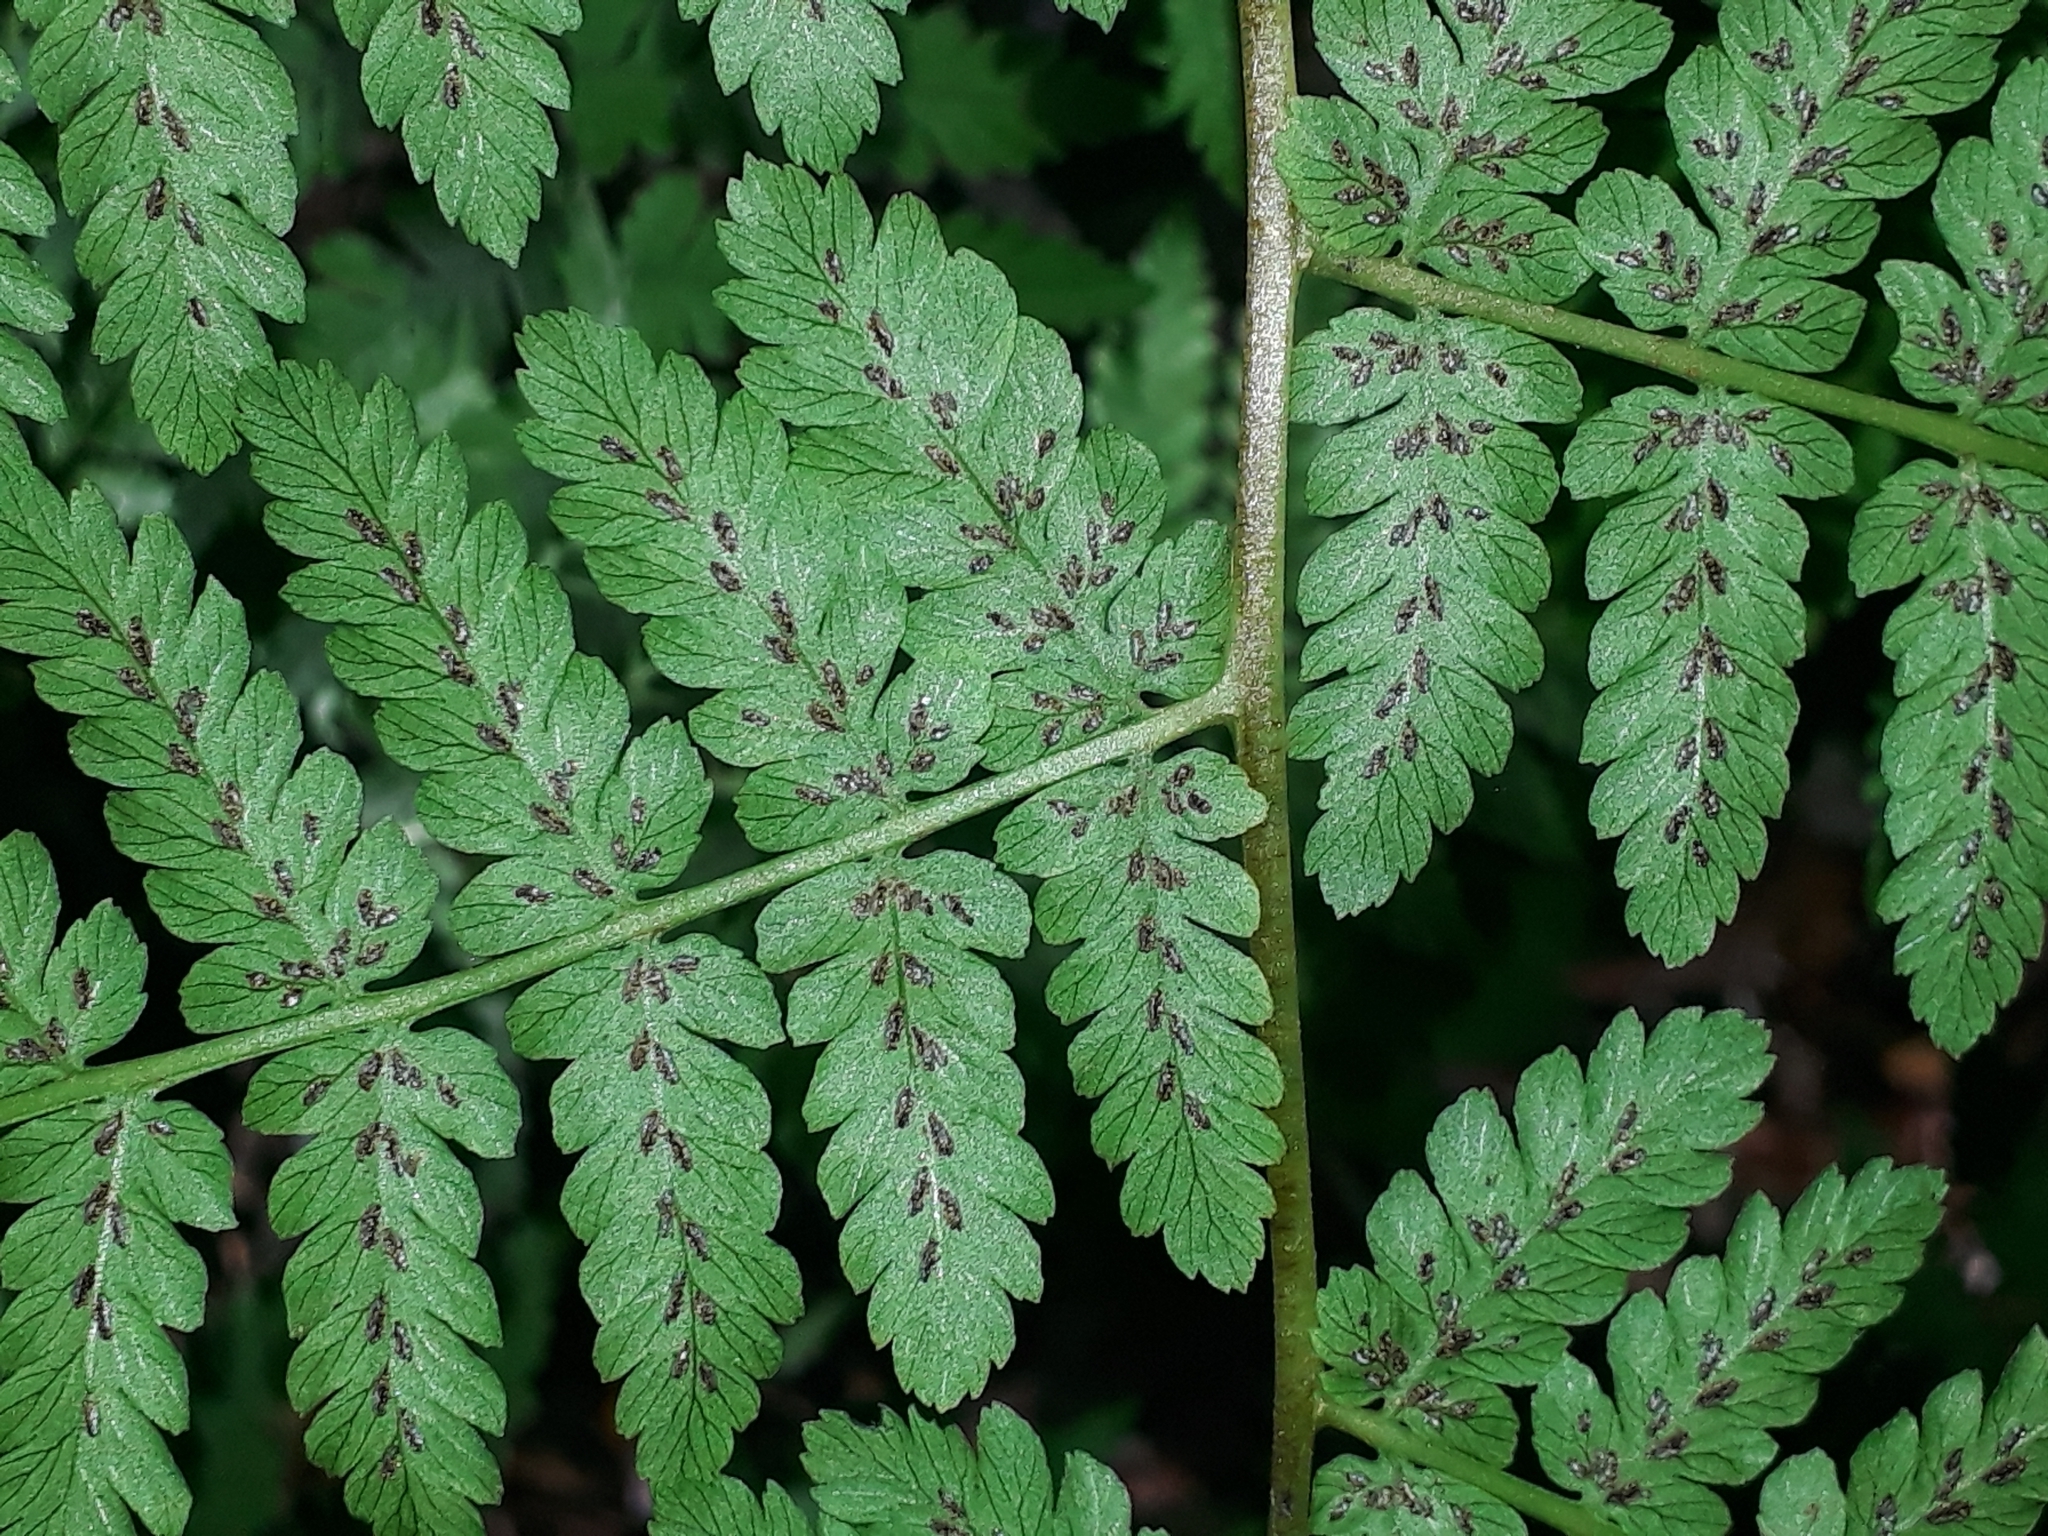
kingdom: Plantae
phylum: Tracheophyta
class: Polypodiopsida
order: Polypodiales
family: Athyriaceae
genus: Diplazium
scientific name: Diplazium australe
